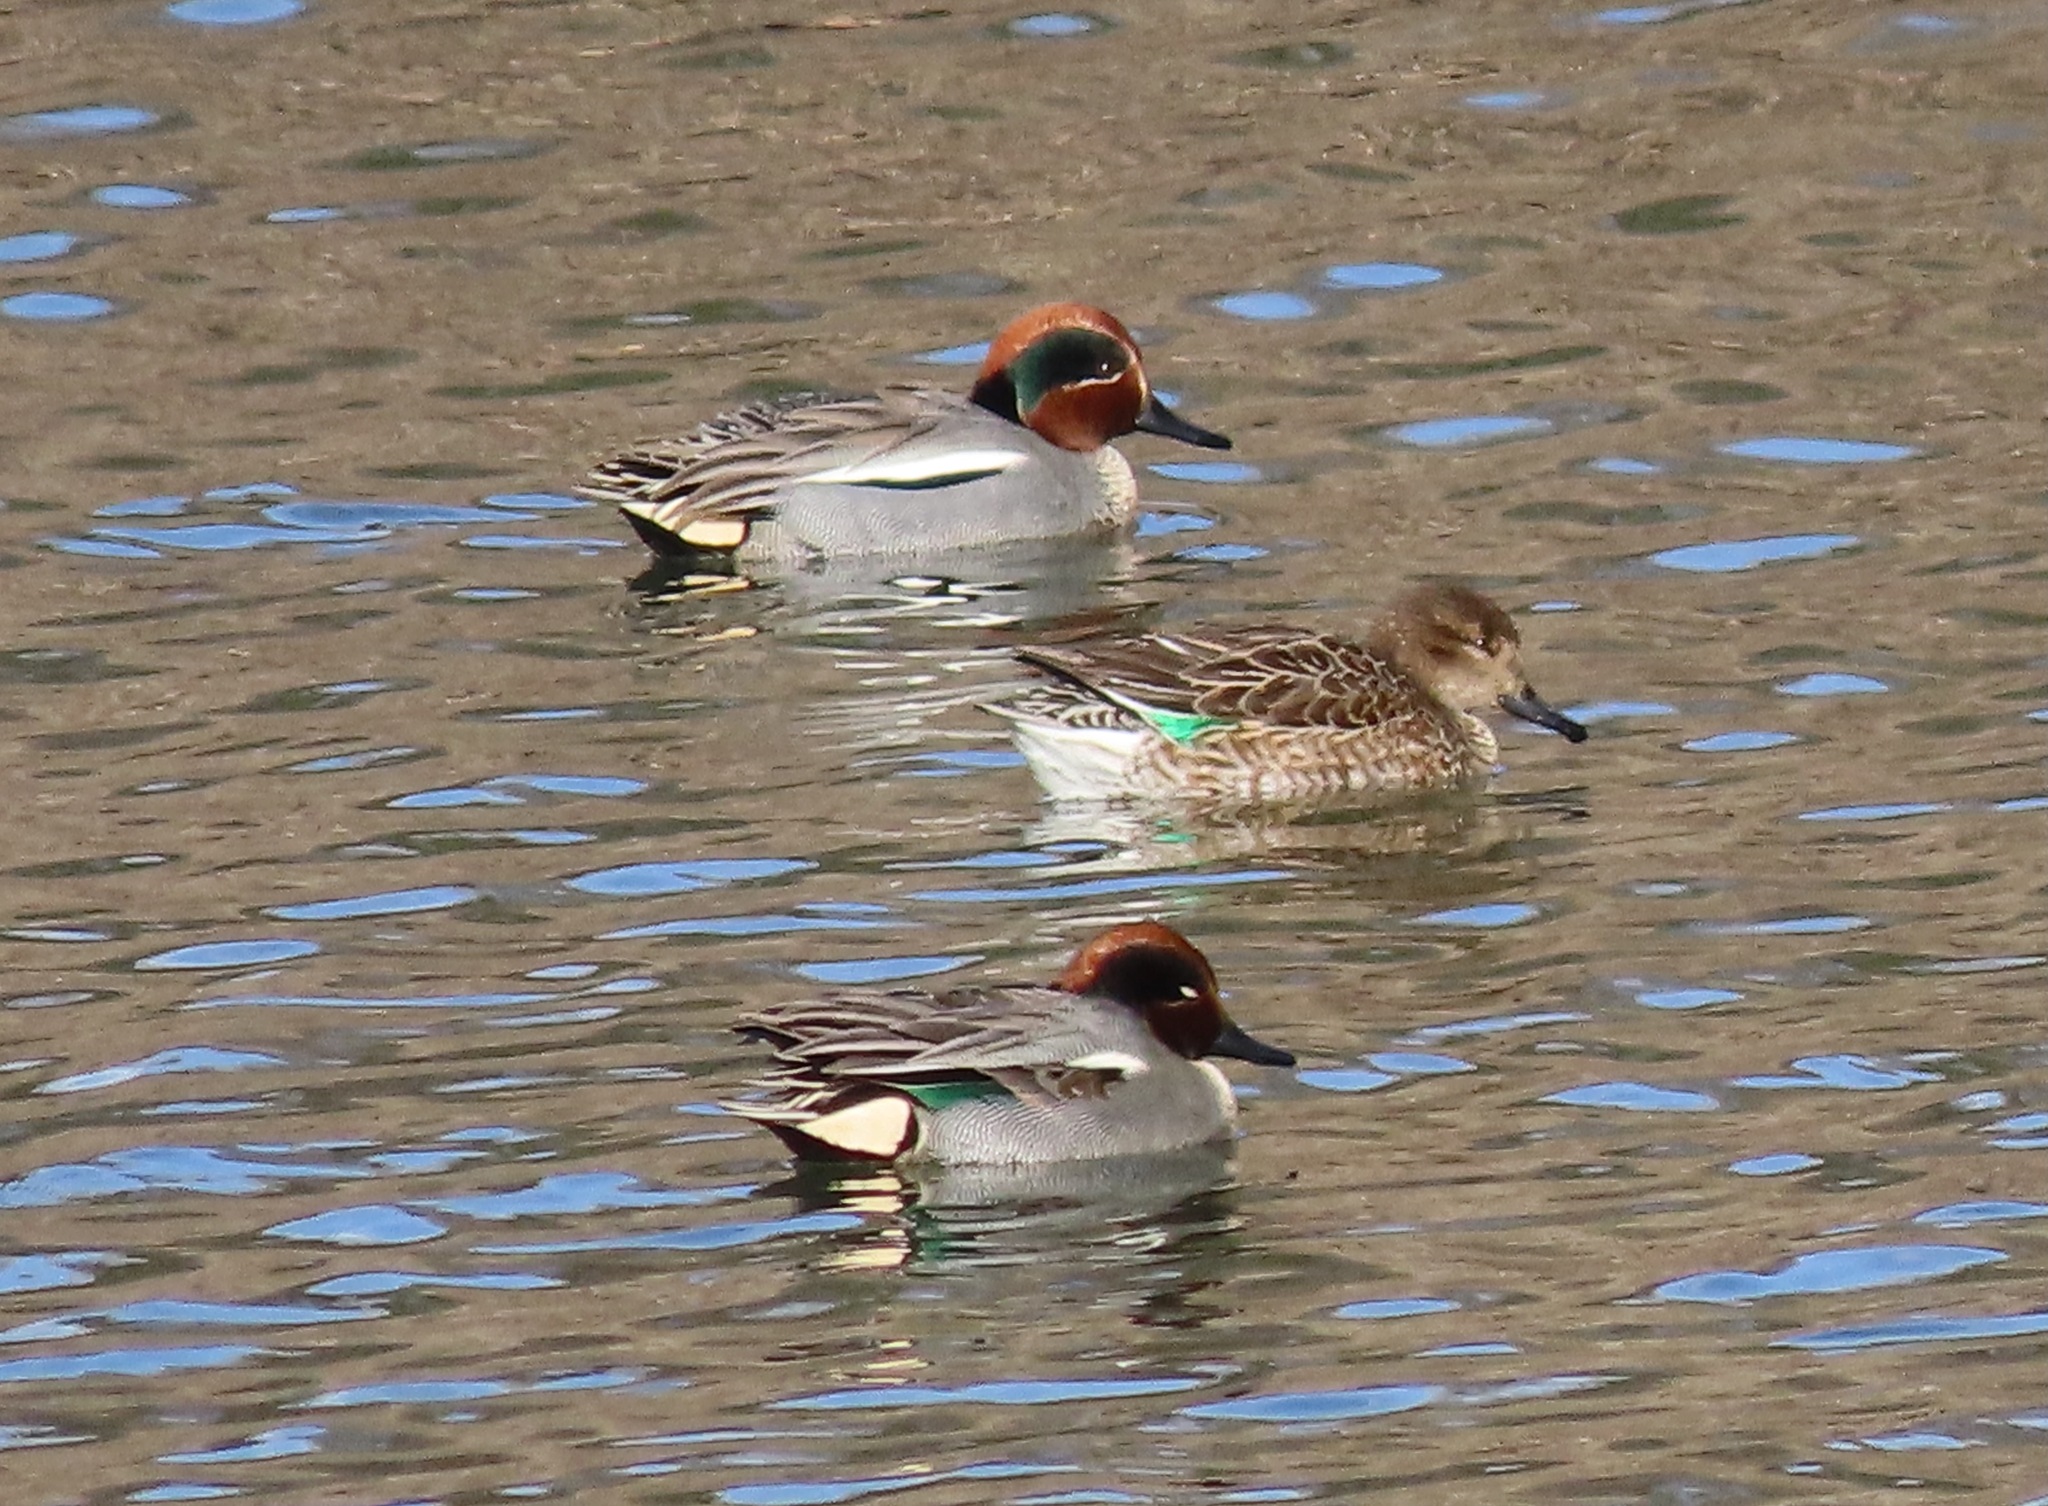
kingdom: Animalia
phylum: Chordata
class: Aves
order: Anseriformes
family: Anatidae
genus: Anas
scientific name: Anas crecca
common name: Eurasian teal
